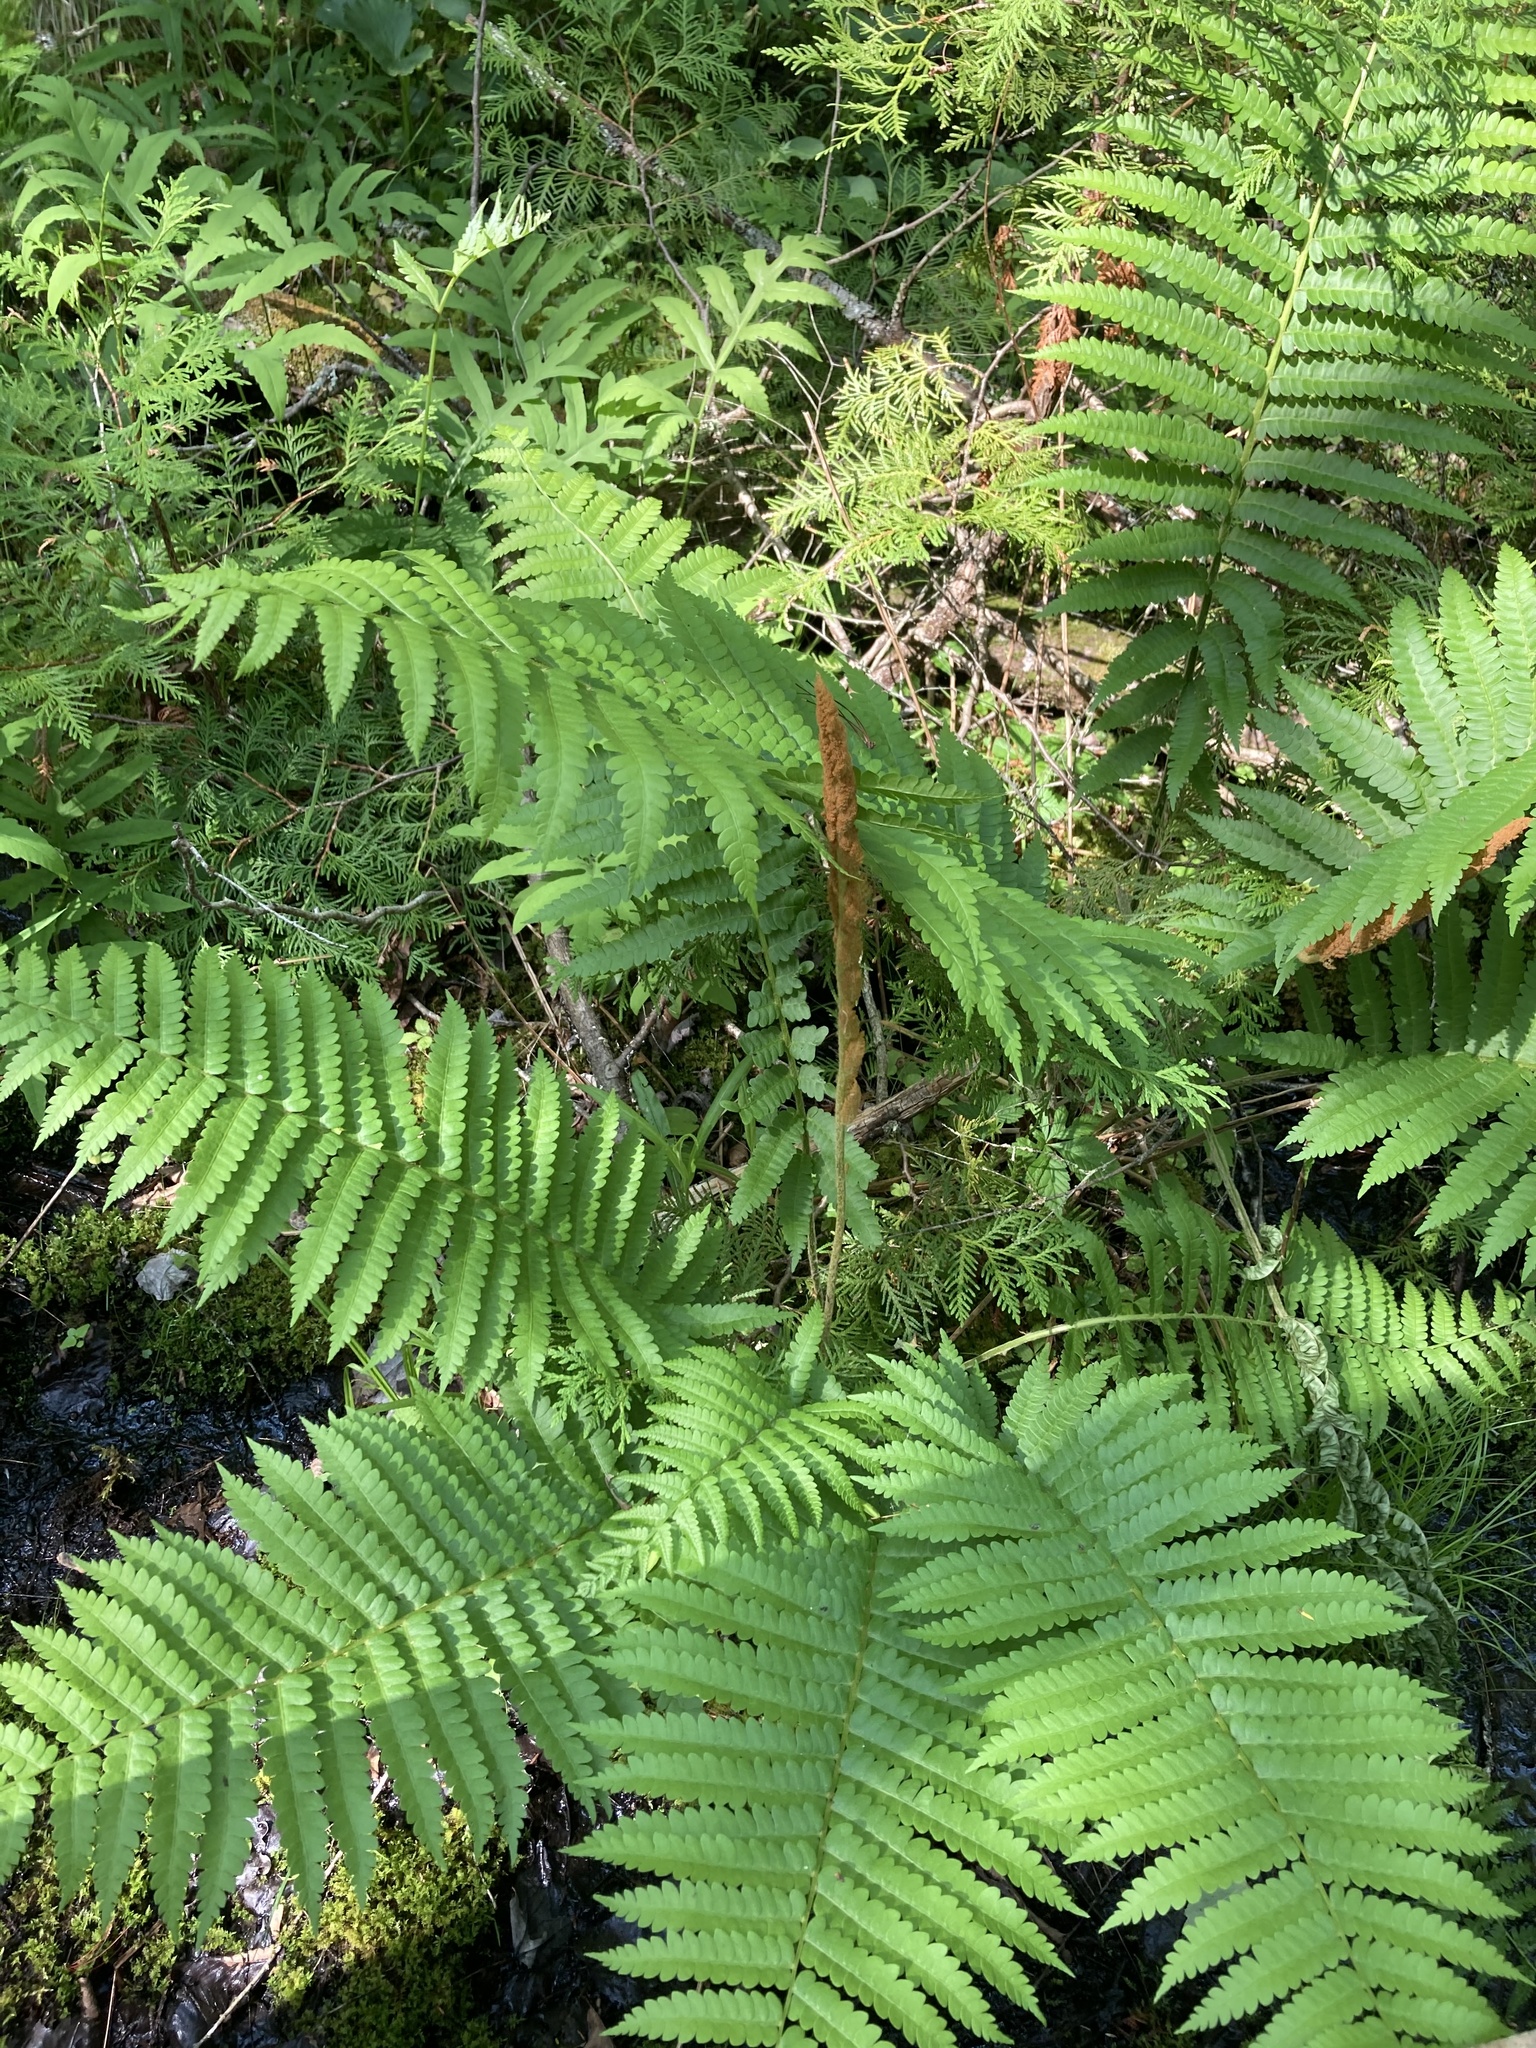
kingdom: Plantae
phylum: Tracheophyta
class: Polypodiopsida
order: Osmundales
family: Osmundaceae
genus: Osmundastrum
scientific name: Osmundastrum cinnamomeum
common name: Cinnamon fern
